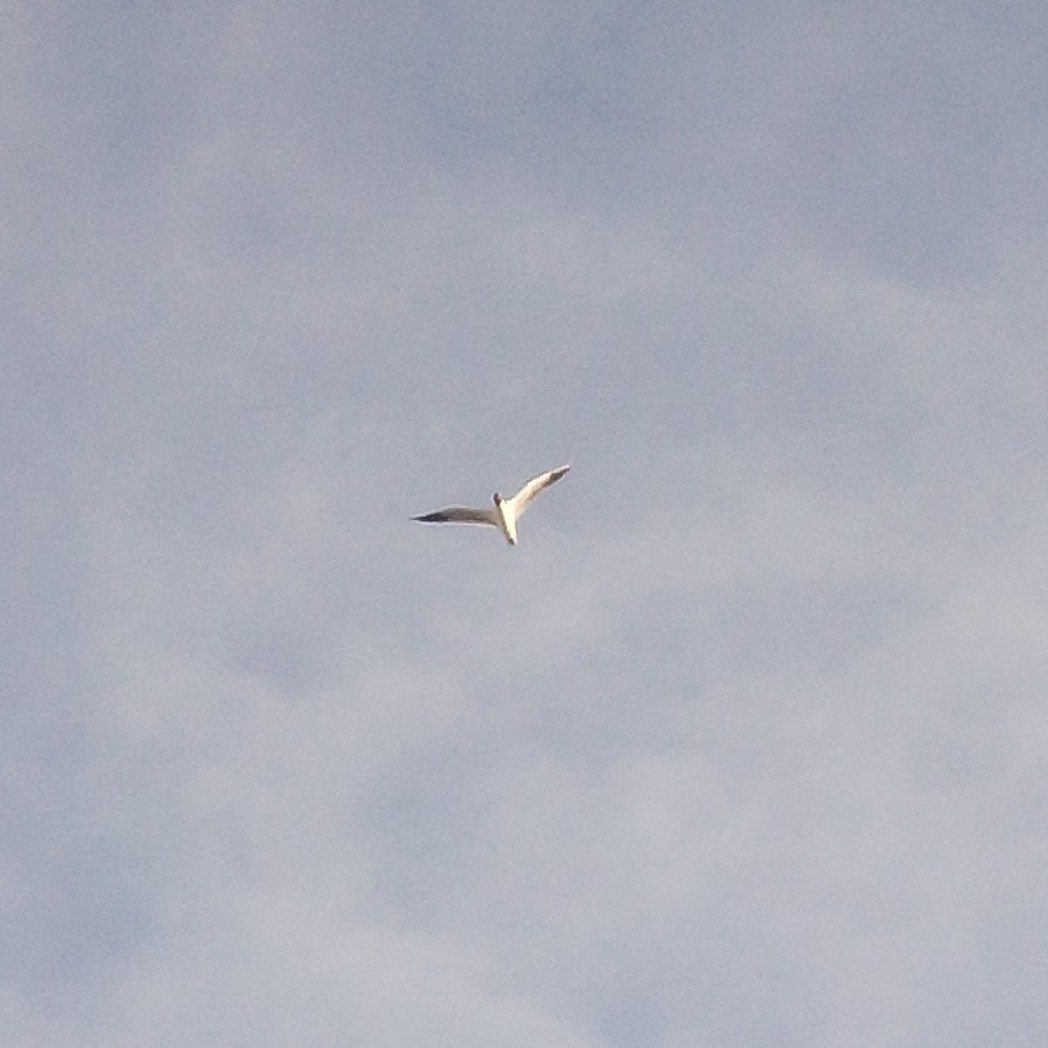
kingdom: Animalia
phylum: Chordata
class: Aves
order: Charadriiformes
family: Laridae
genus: Chroicocephalus
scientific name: Chroicocephalus ridibundus
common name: Black-headed gull
